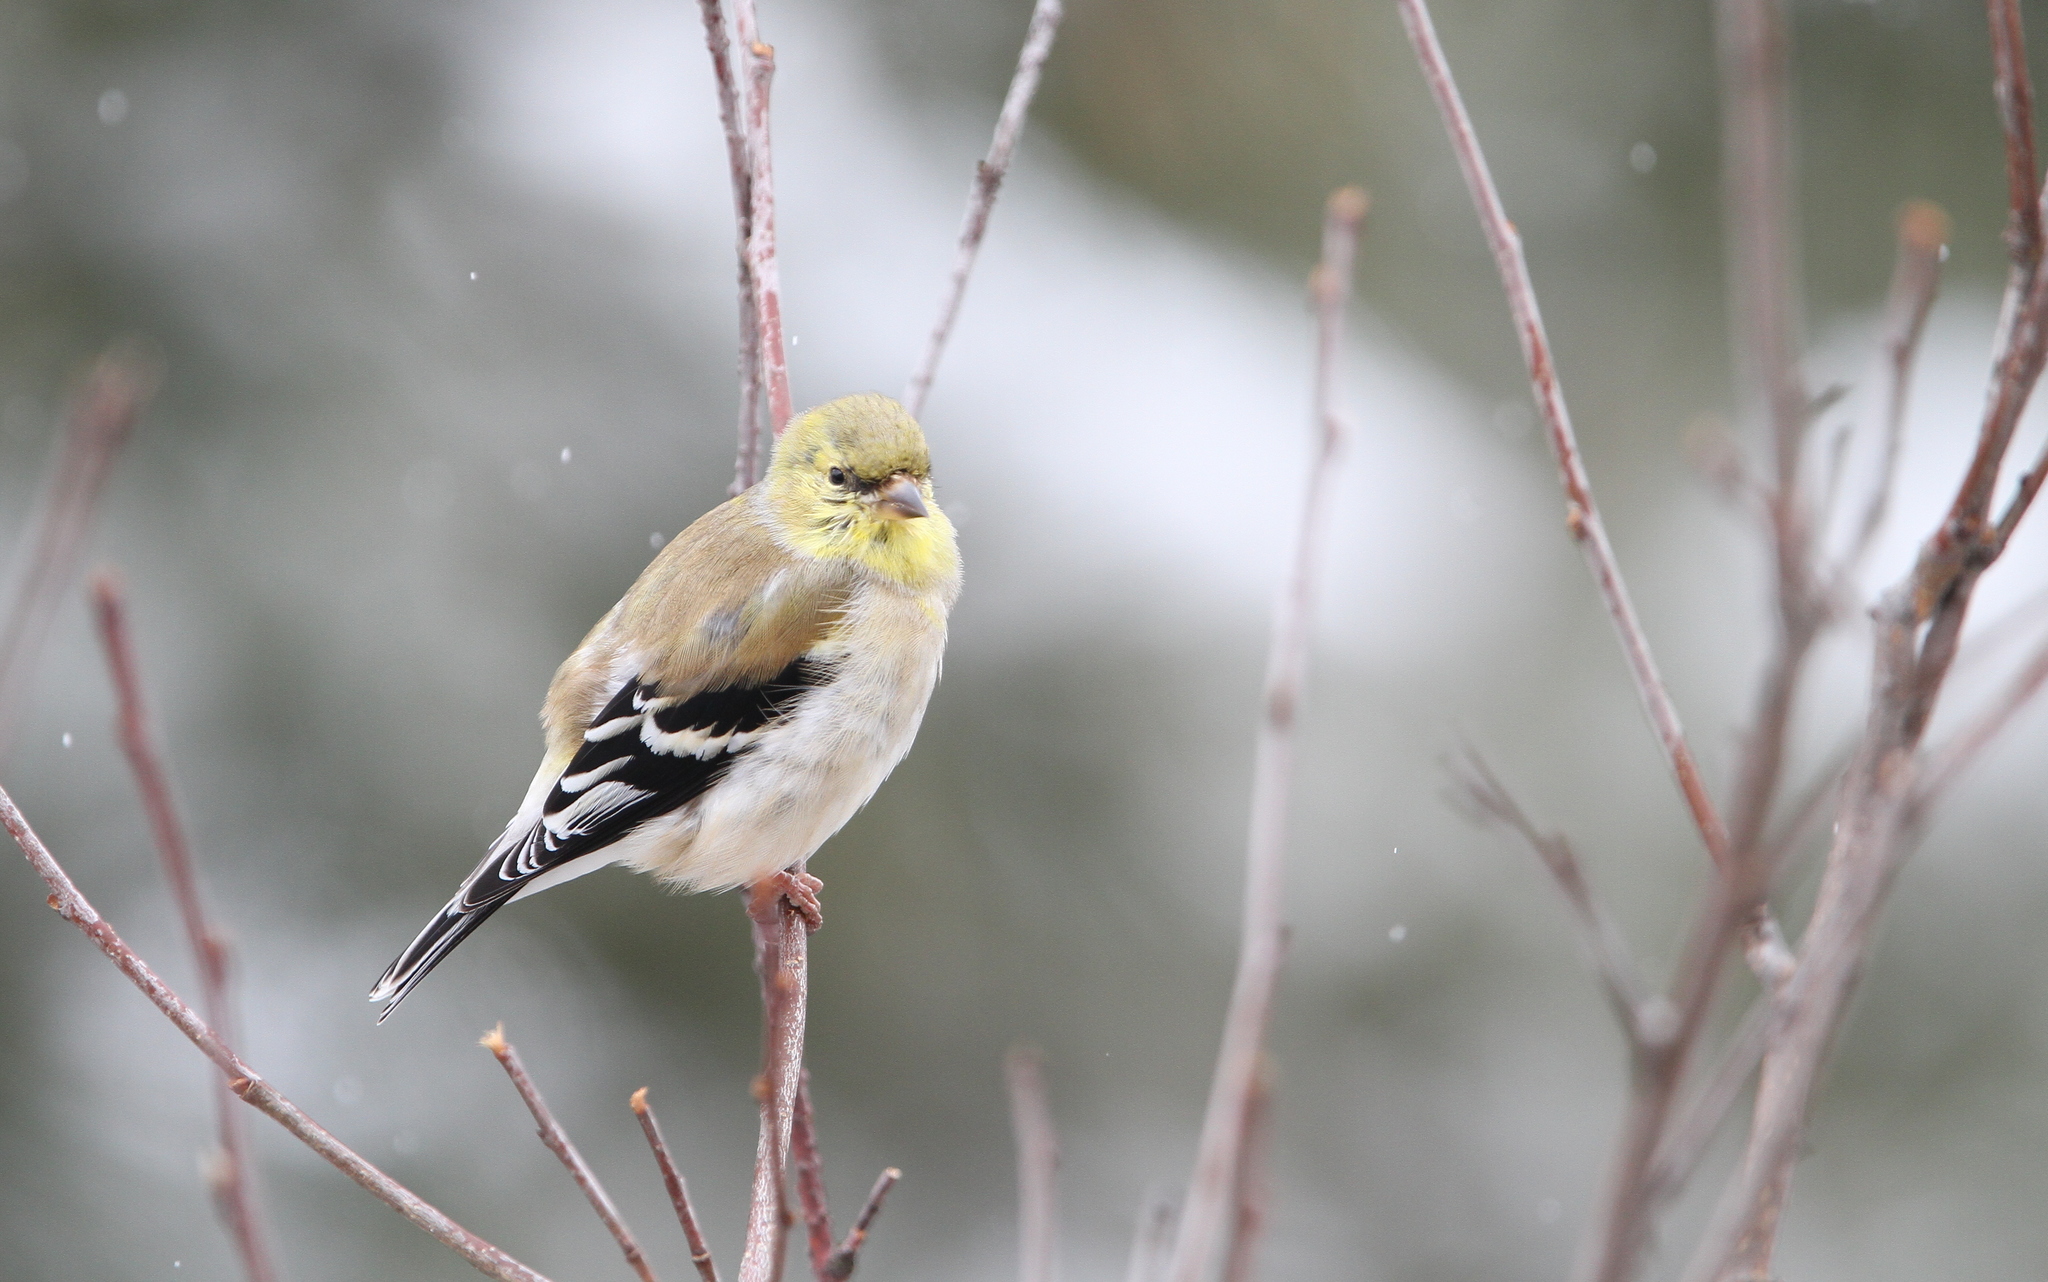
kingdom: Animalia
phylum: Chordata
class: Aves
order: Passeriformes
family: Fringillidae
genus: Spinus
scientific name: Spinus tristis
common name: American goldfinch
